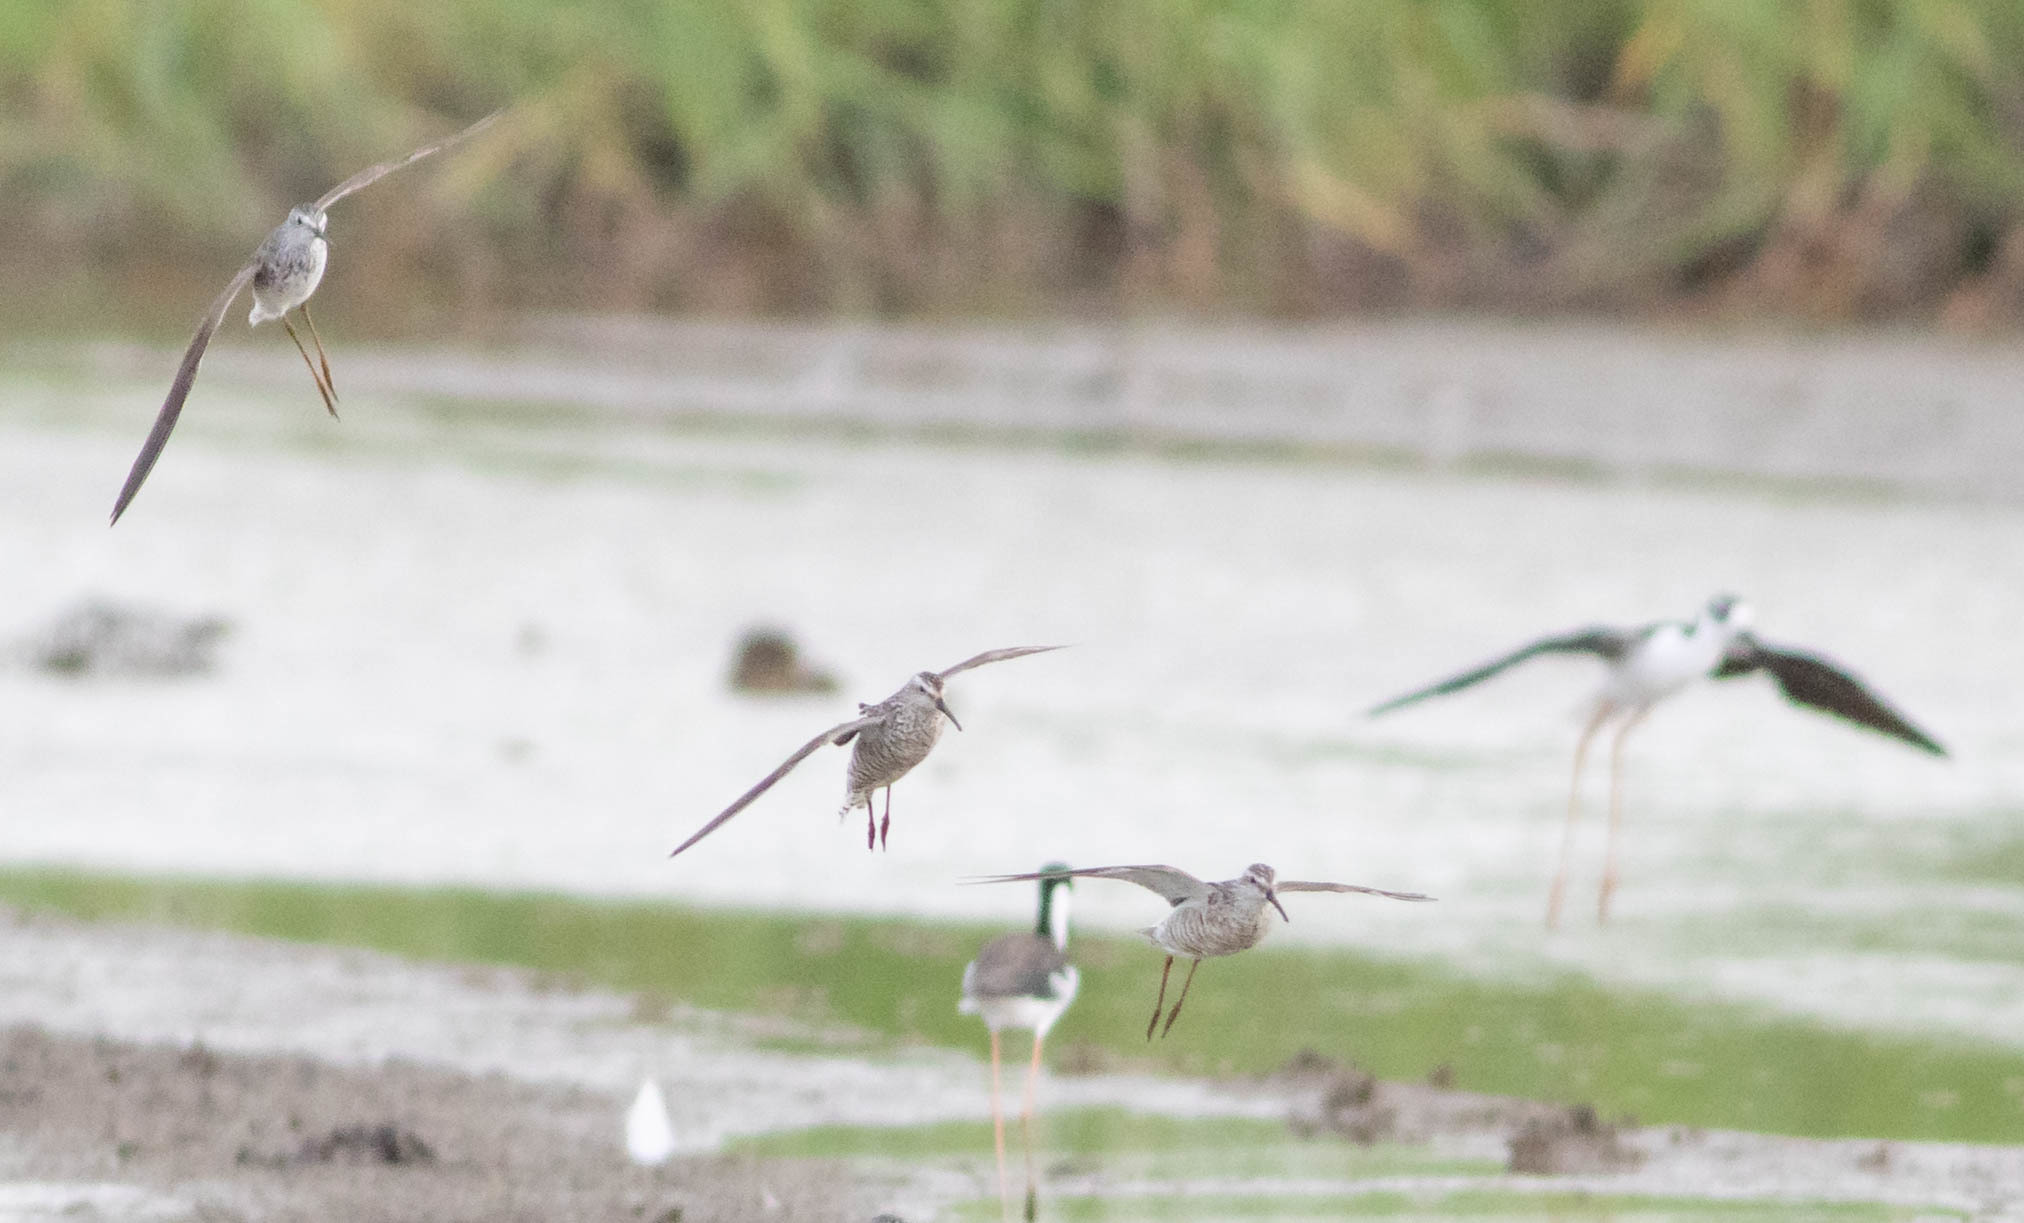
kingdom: Animalia
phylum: Chordata
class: Aves
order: Charadriiformes
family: Scolopacidae
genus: Tringa
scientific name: Tringa flavipes
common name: Lesser yellowlegs
